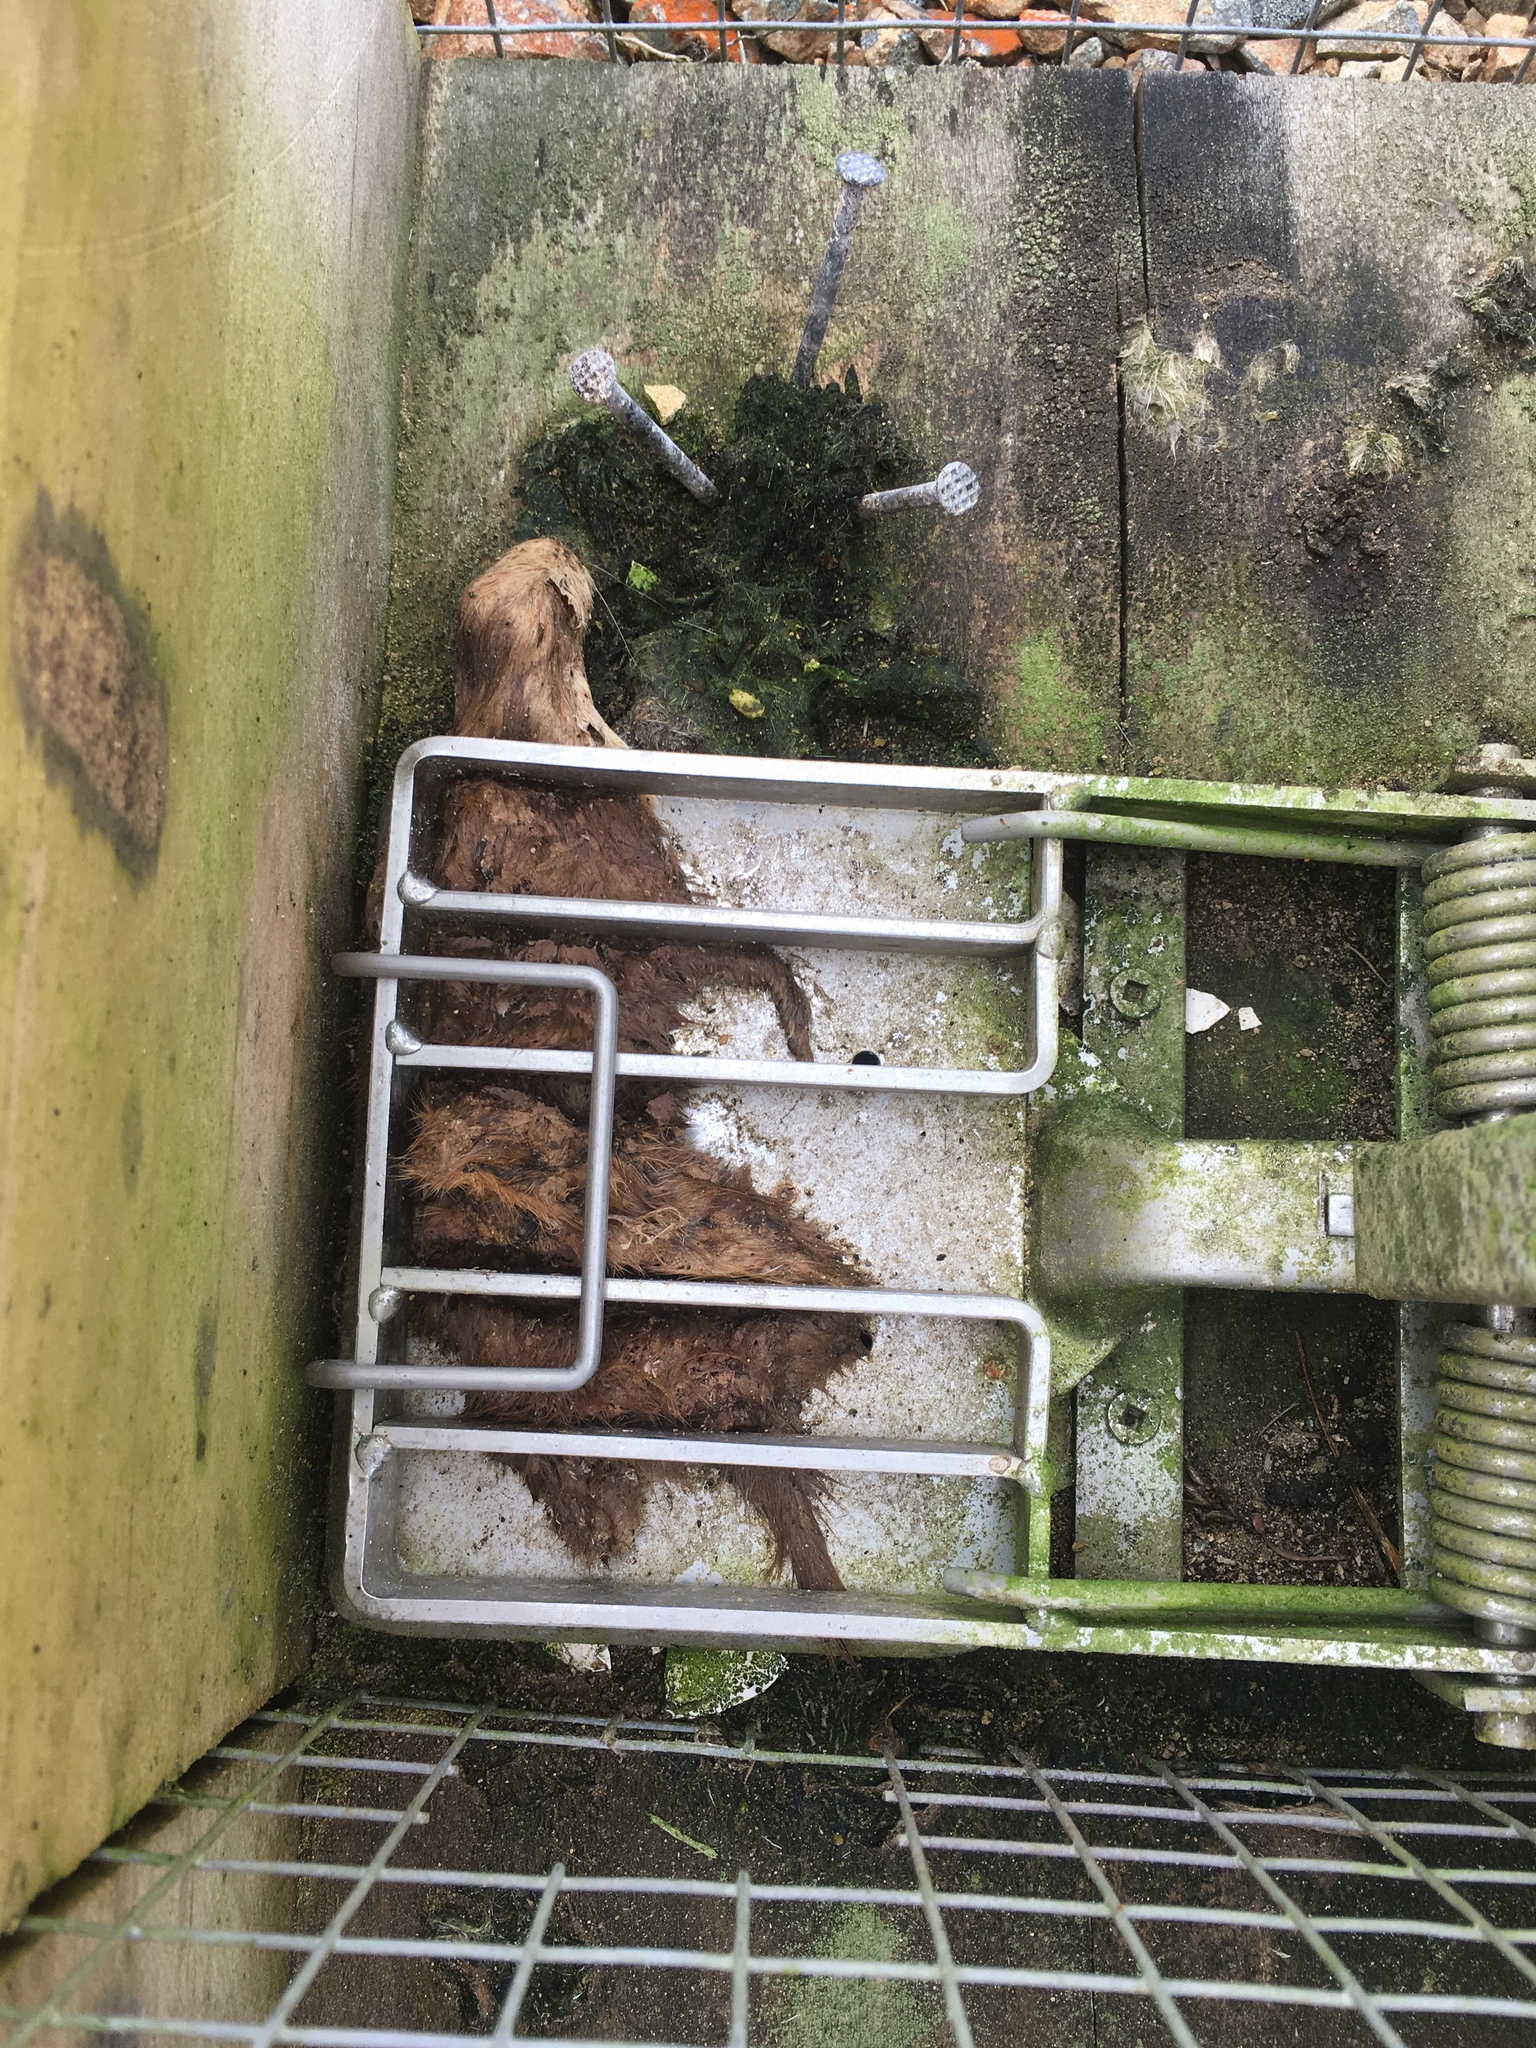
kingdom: Animalia
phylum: Chordata
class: Mammalia
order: Carnivora
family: Mustelidae
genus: Mustela
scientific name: Mustela nivalis
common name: Least weasel
